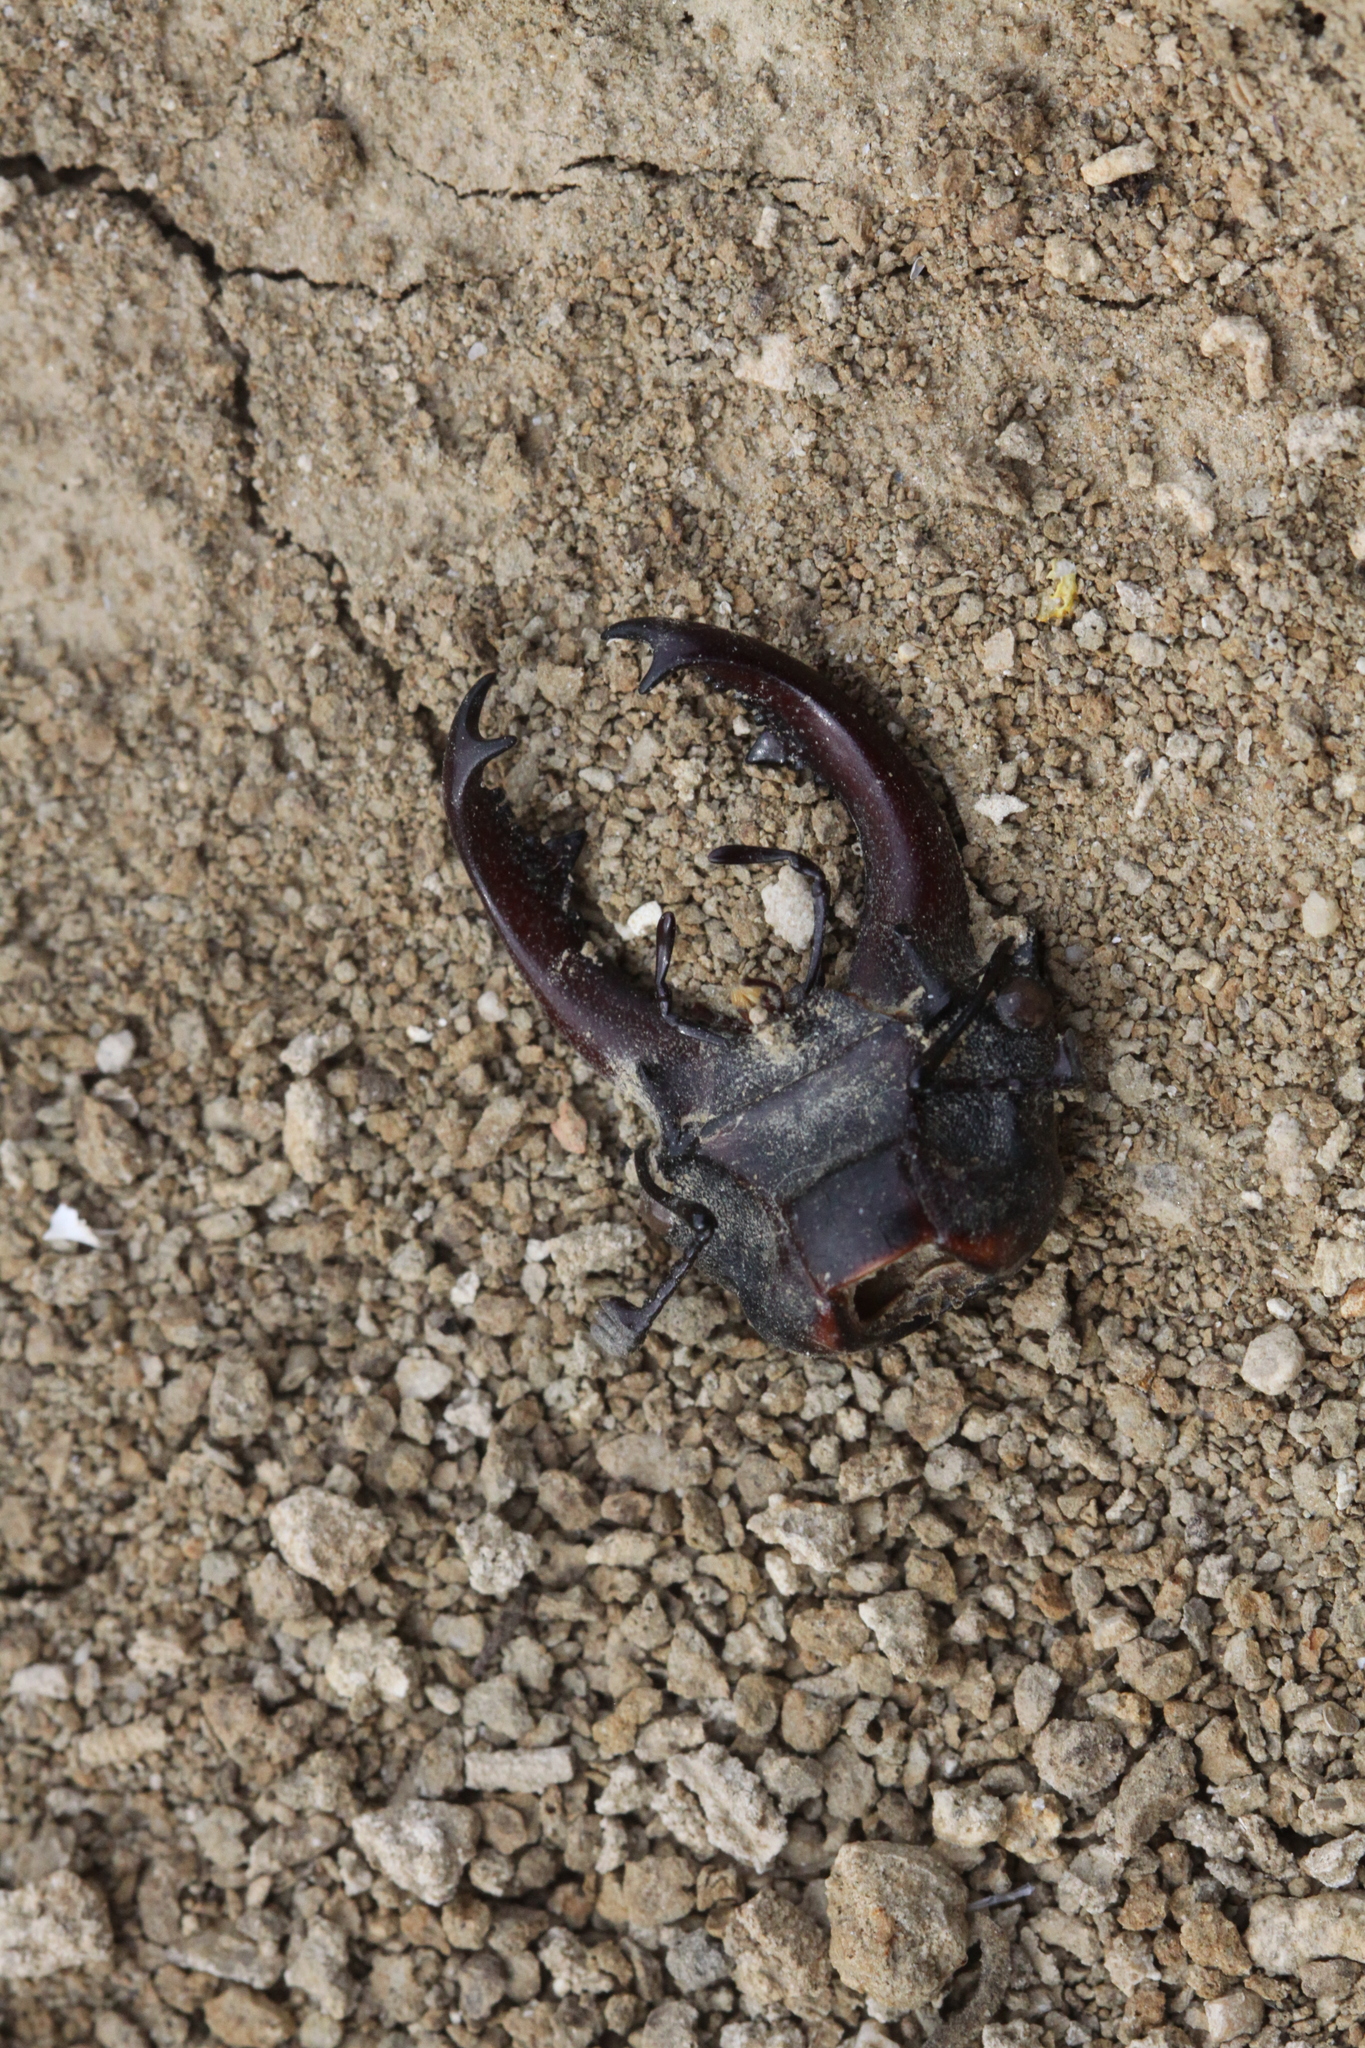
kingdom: Animalia
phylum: Arthropoda
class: Insecta
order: Coleoptera
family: Lucanidae
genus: Lucanus
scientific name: Lucanus cervus
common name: Stag beetle
